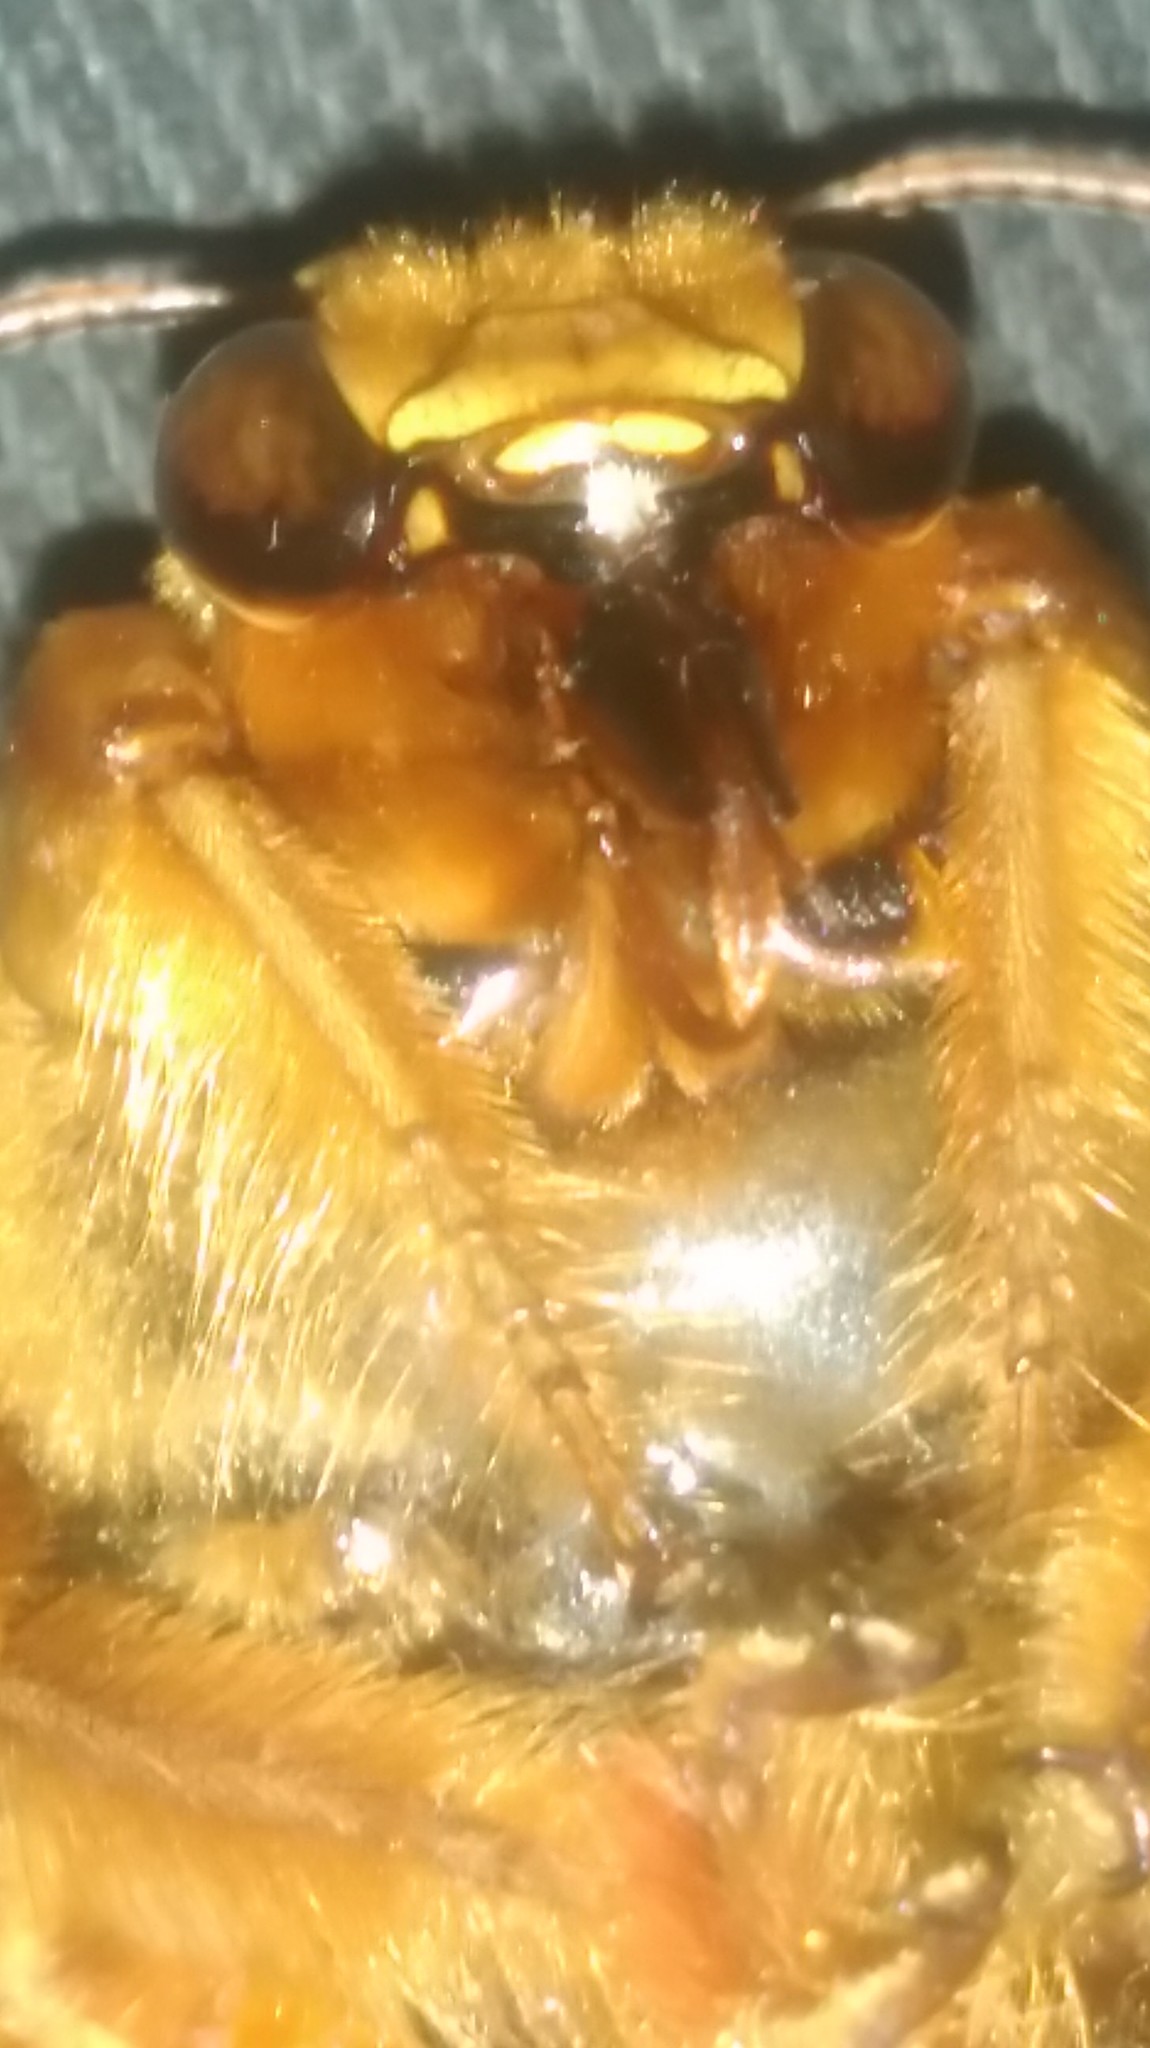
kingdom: Animalia
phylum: Arthropoda
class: Insecta
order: Hymenoptera
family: Apidae
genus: Xylocopa
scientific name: Xylocopa frontalis
